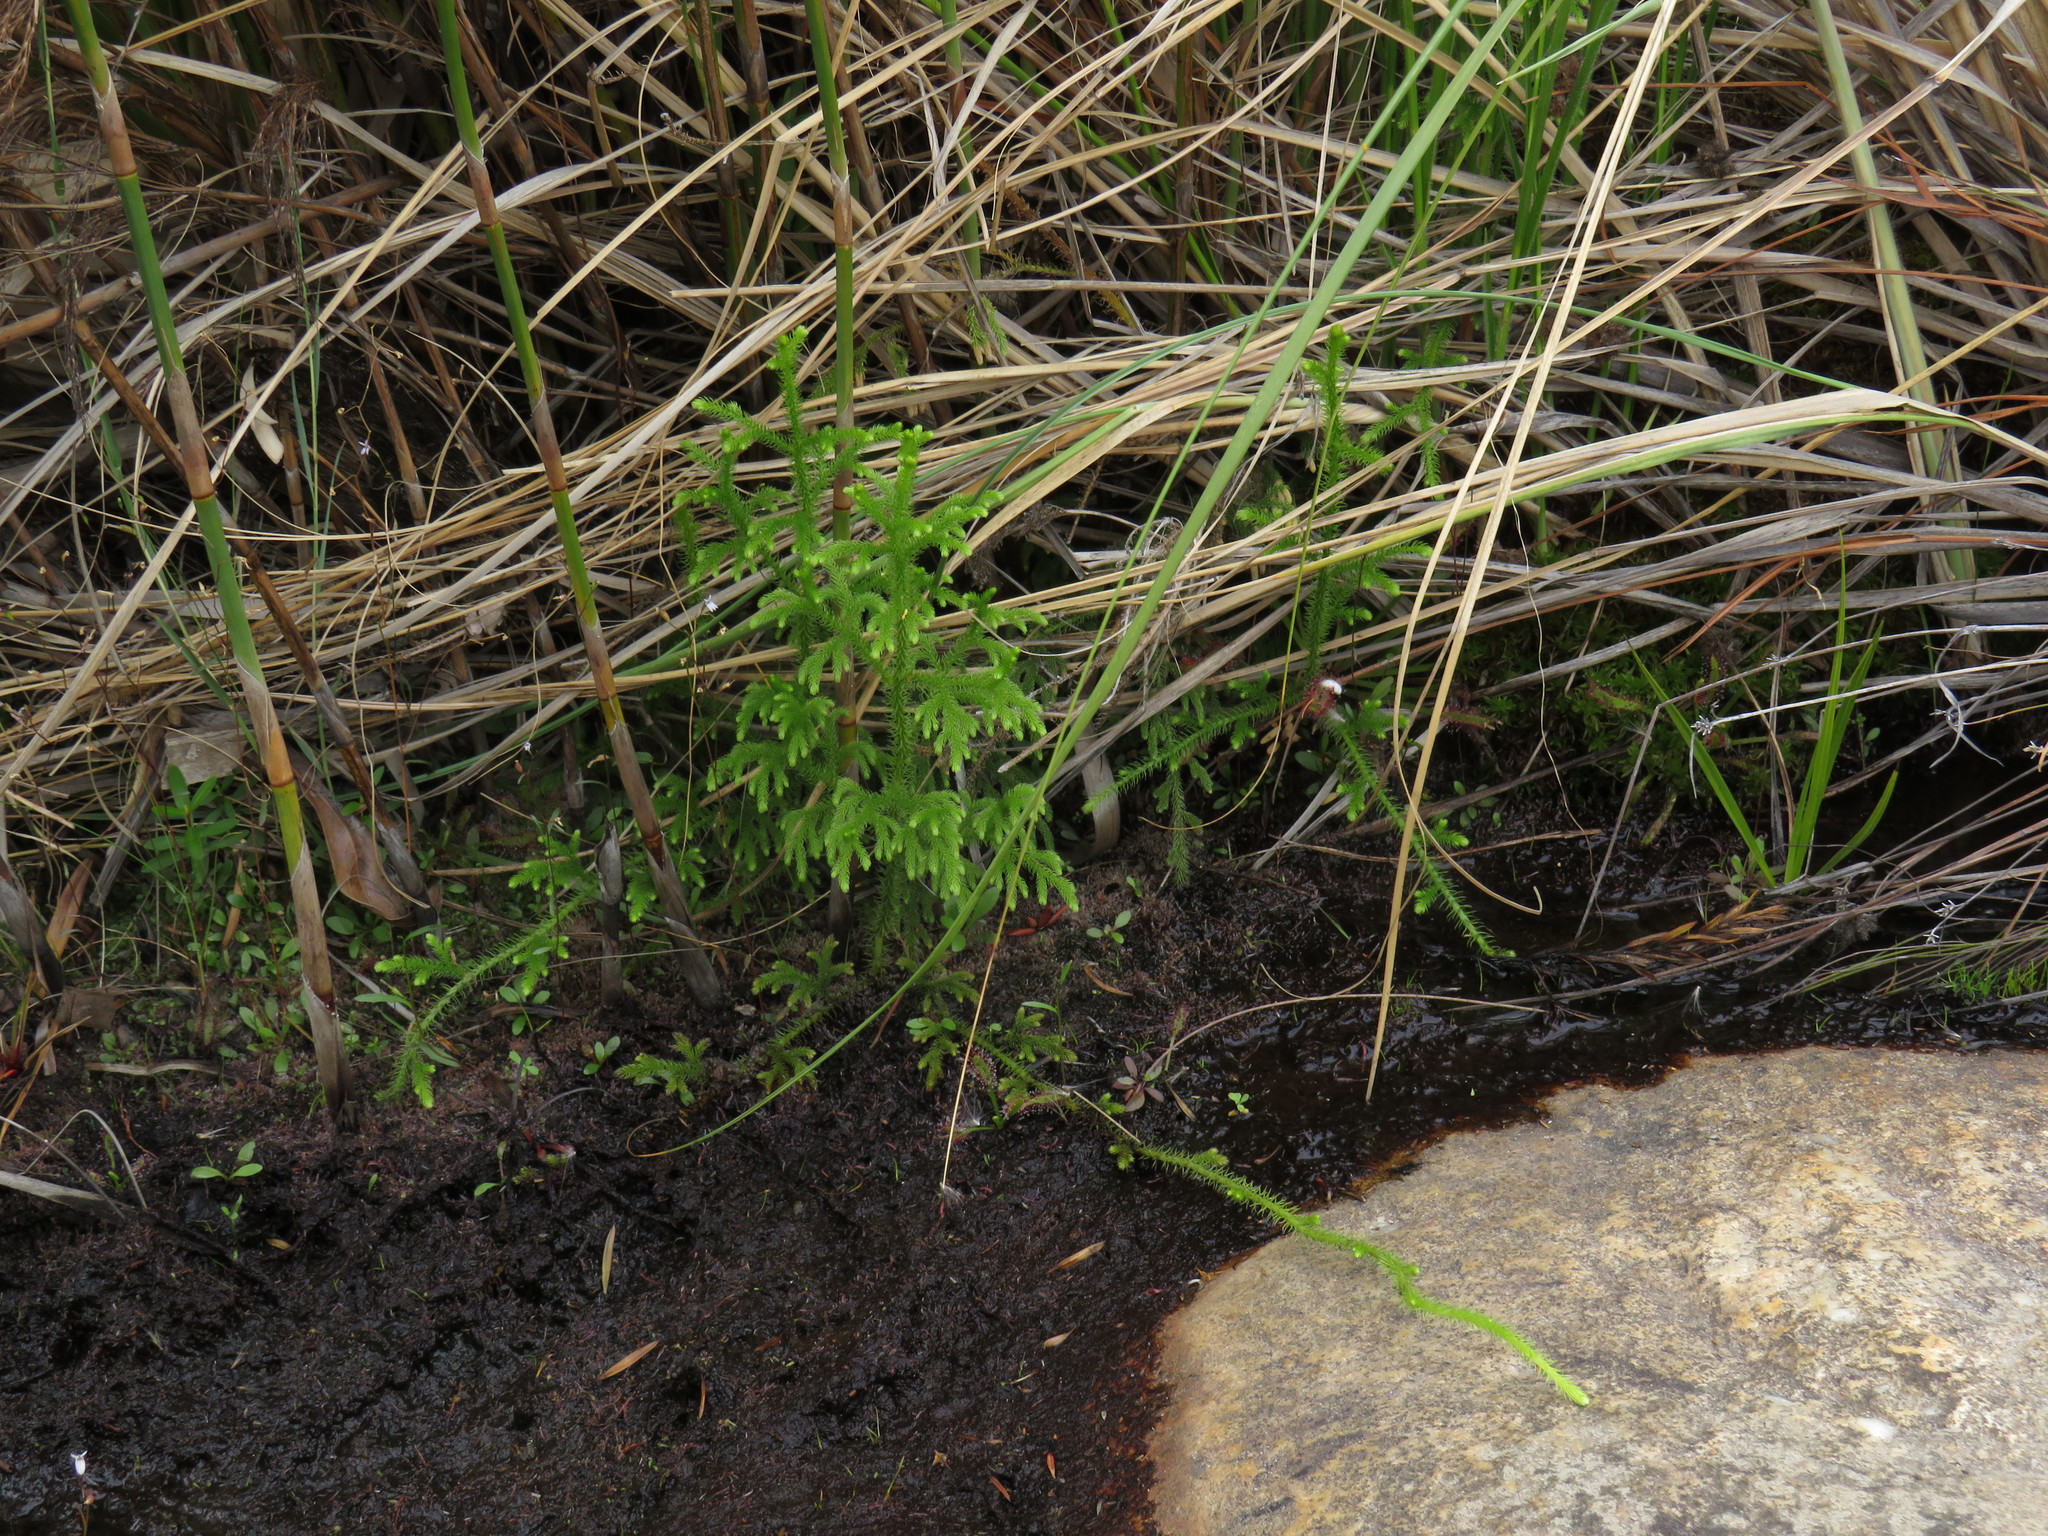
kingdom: Plantae
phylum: Tracheophyta
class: Lycopodiopsida
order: Lycopodiales
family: Lycopodiaceae
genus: Palhinhaea
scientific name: Palhinhaea cernua
